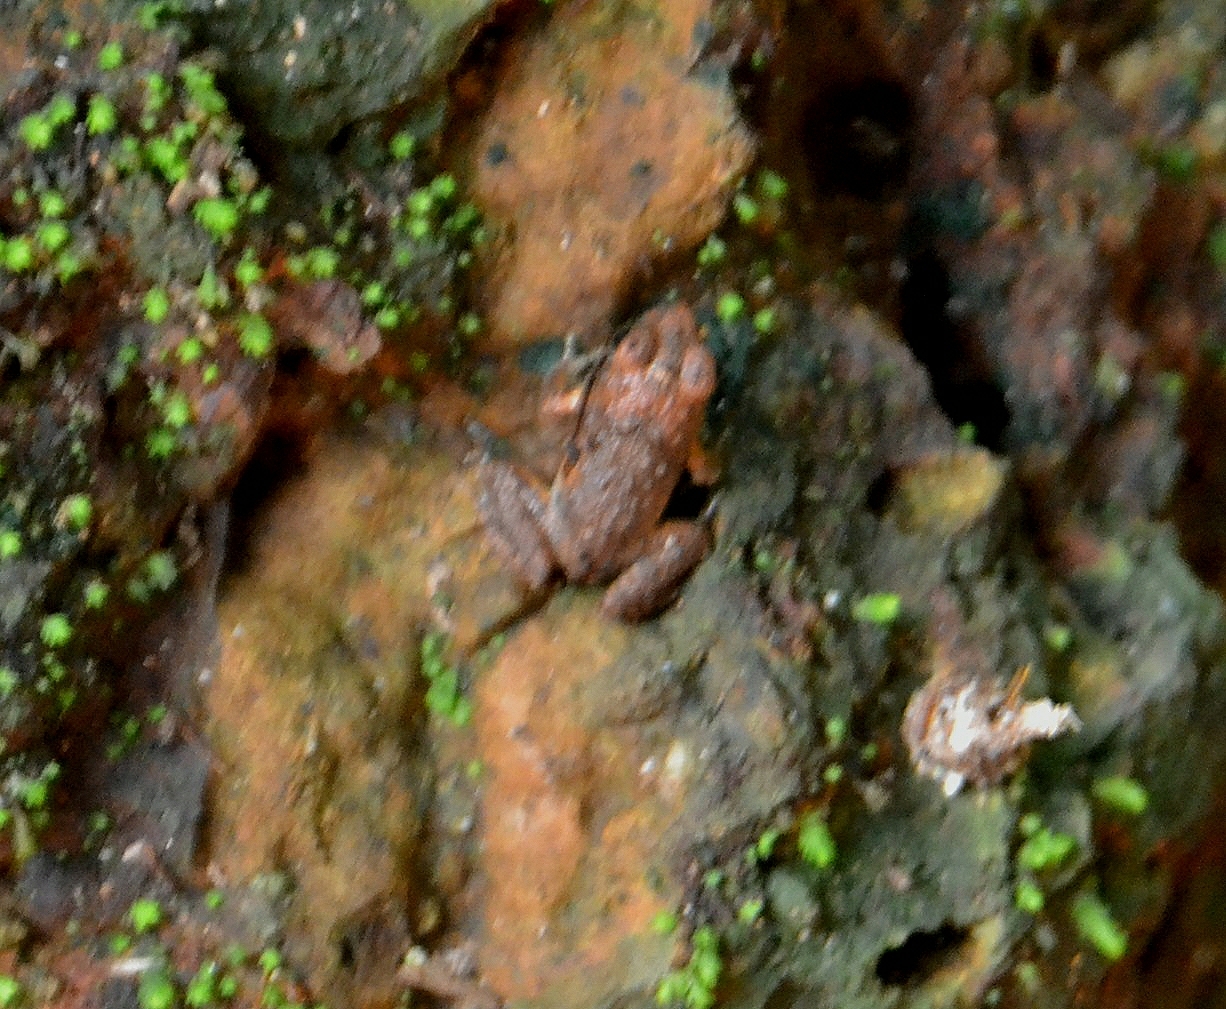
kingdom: Animalia
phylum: Chordata
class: Amphibia
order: Anura
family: Dicroglossidae
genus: Minervarya
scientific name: Minervarya rufescens
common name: Malabar wart frog
